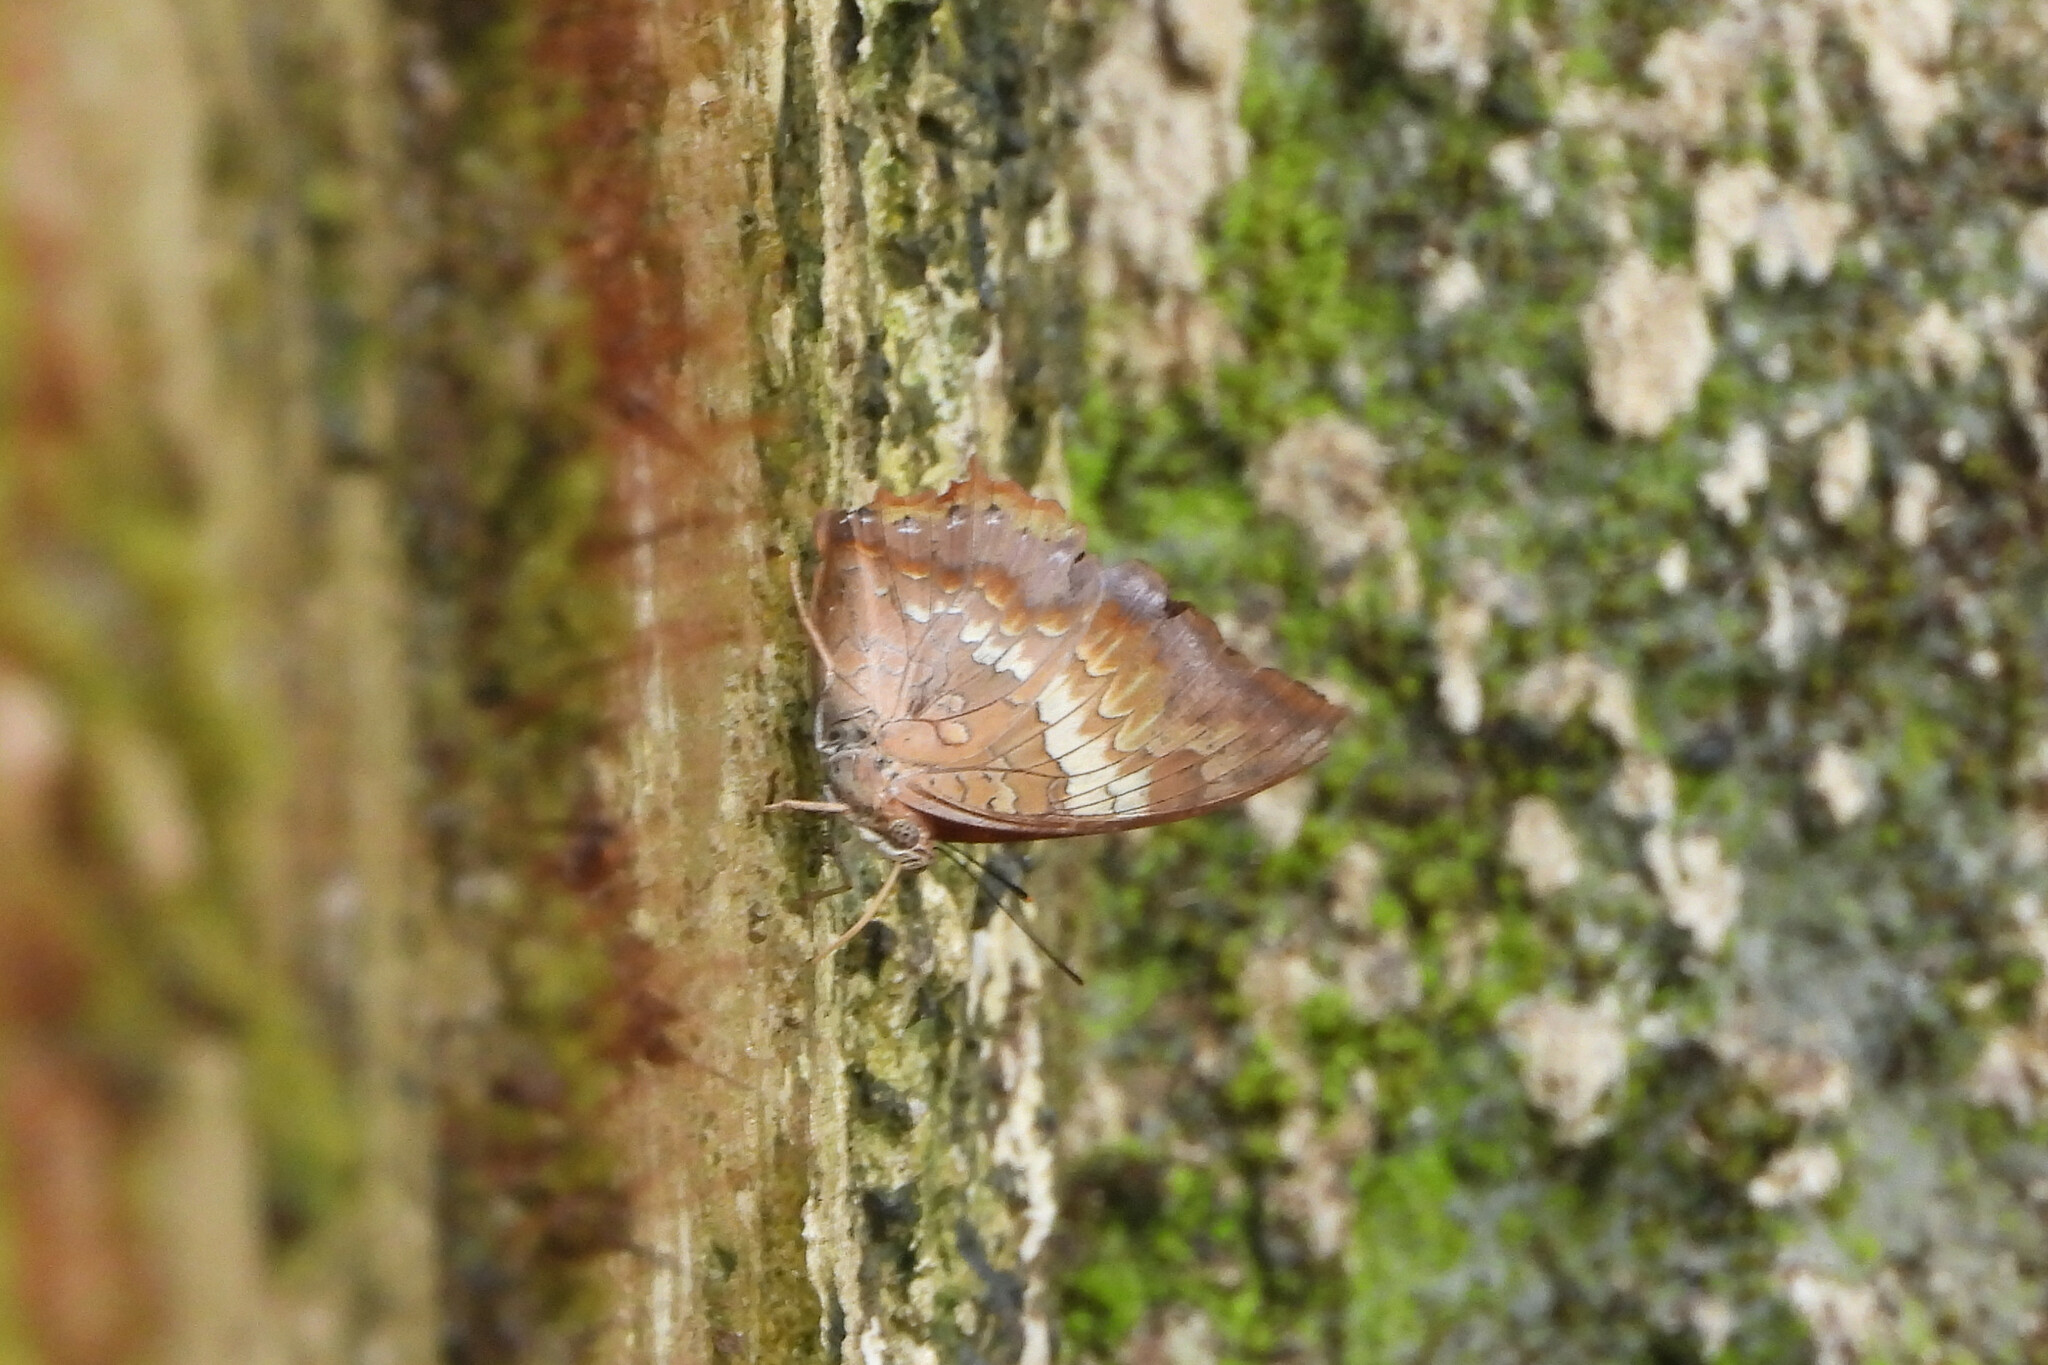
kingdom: Animalia
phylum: Arthropoda
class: Insecta
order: Lepidoptera
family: Nymphalidae
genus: Charaxes
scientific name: Charaxes bernardus
